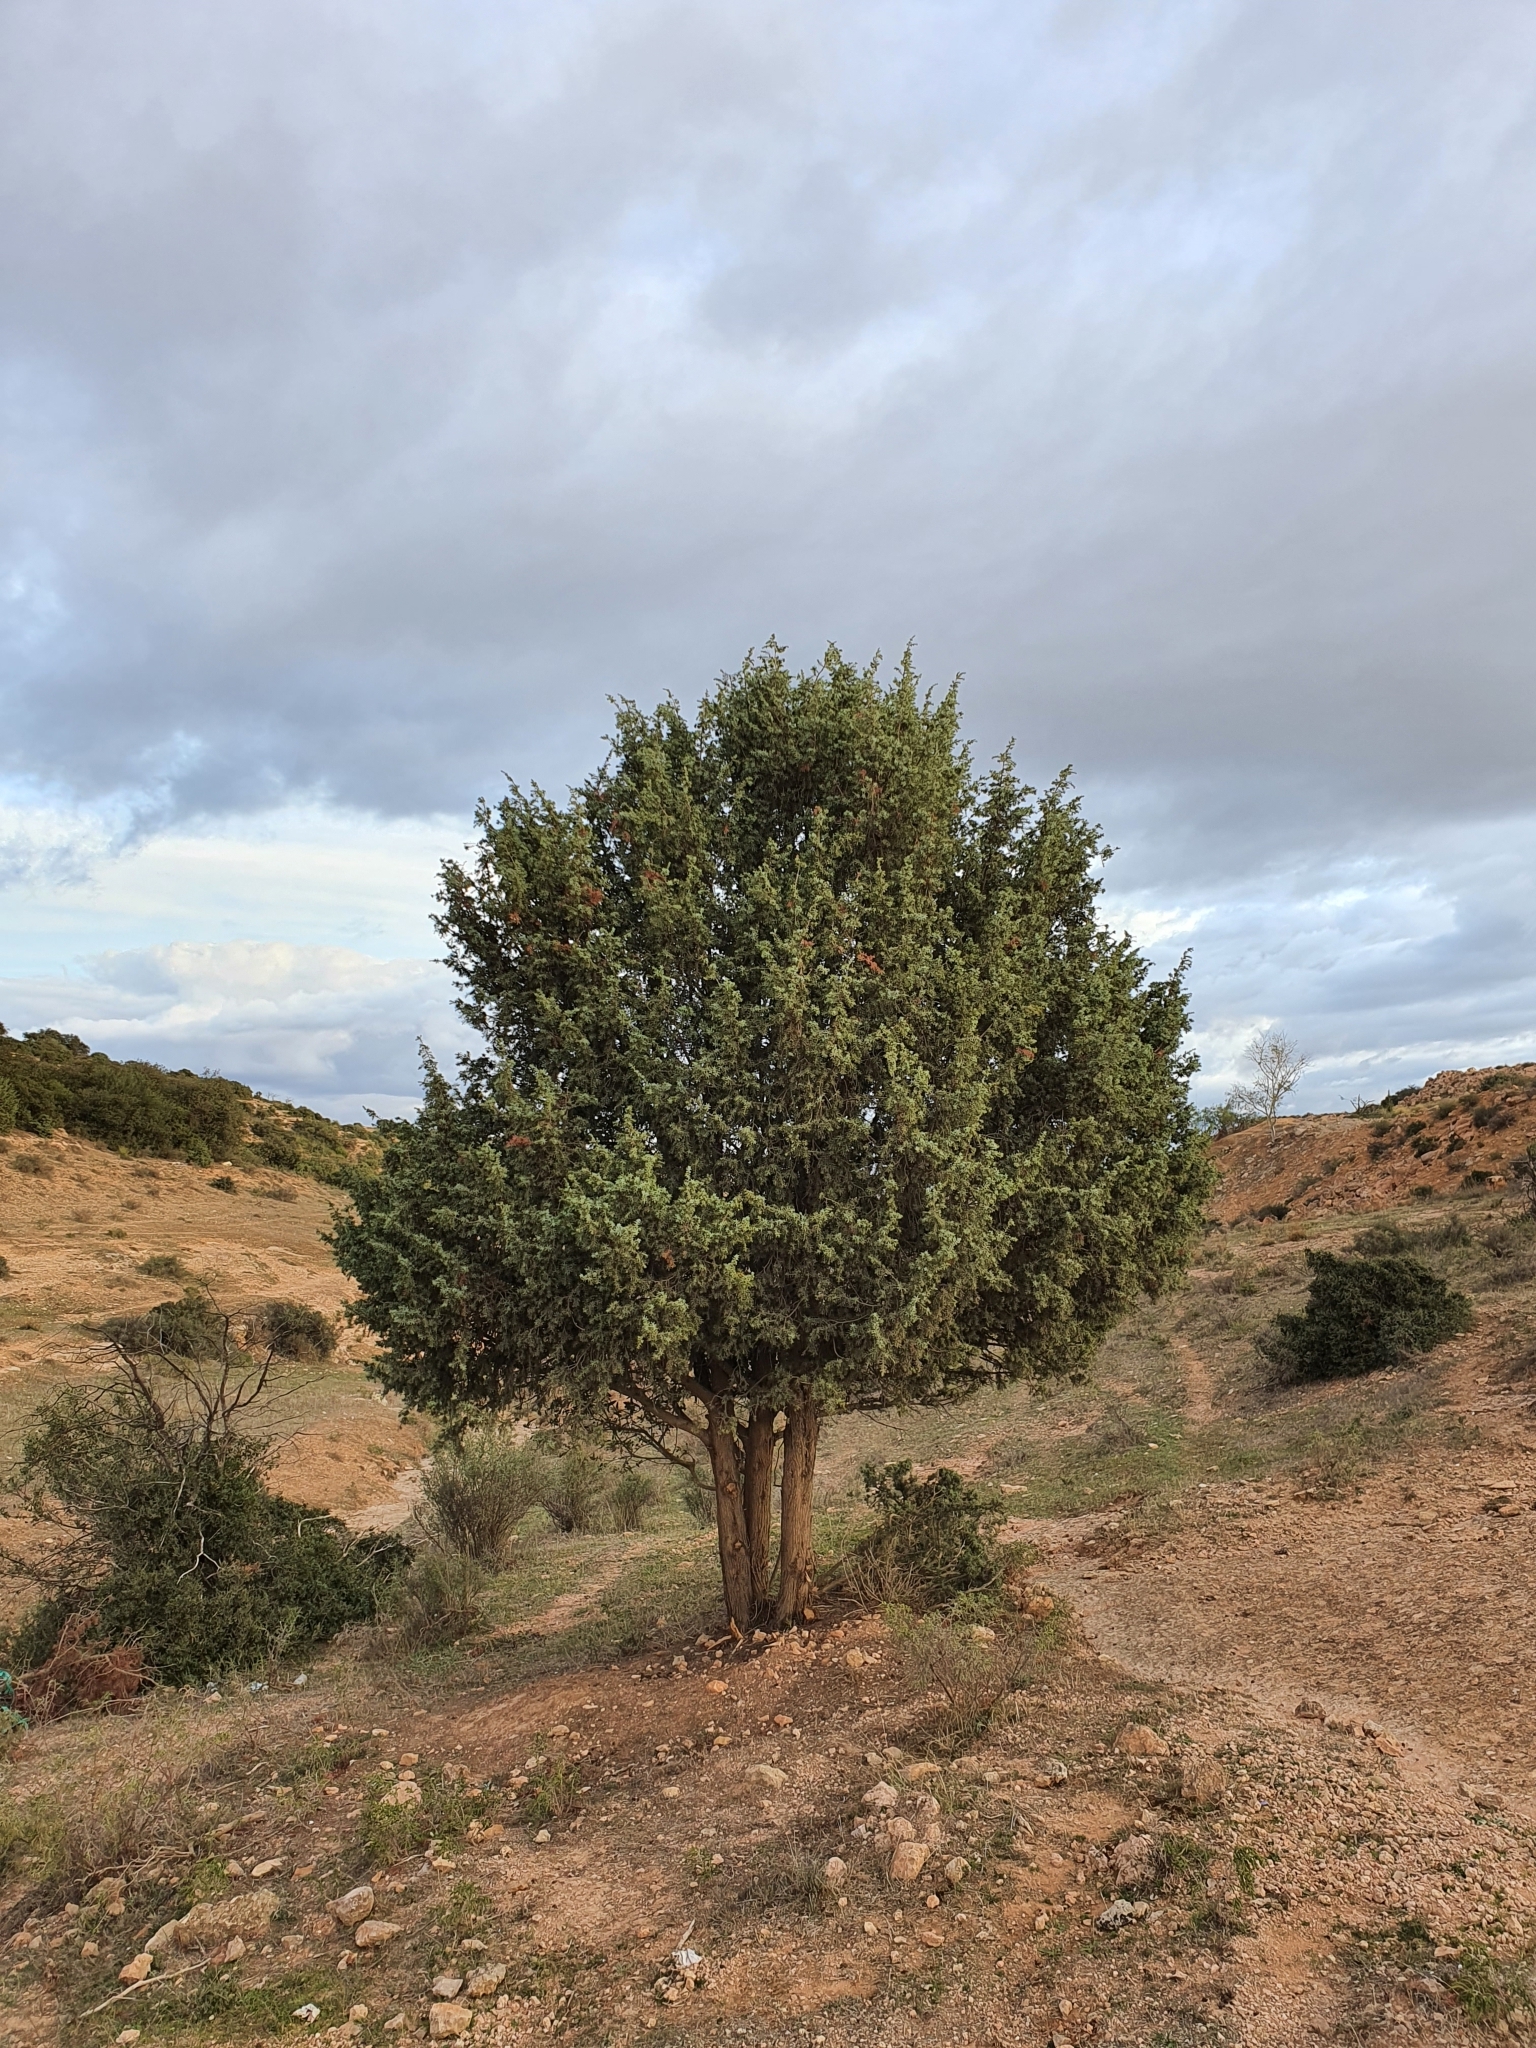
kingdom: Plantae
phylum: Tracheophyta
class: Pinopsida
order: Pinales
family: Cupressaceae
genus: Juniperus
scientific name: Juniperus oxycedrus
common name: Prickly juniper
